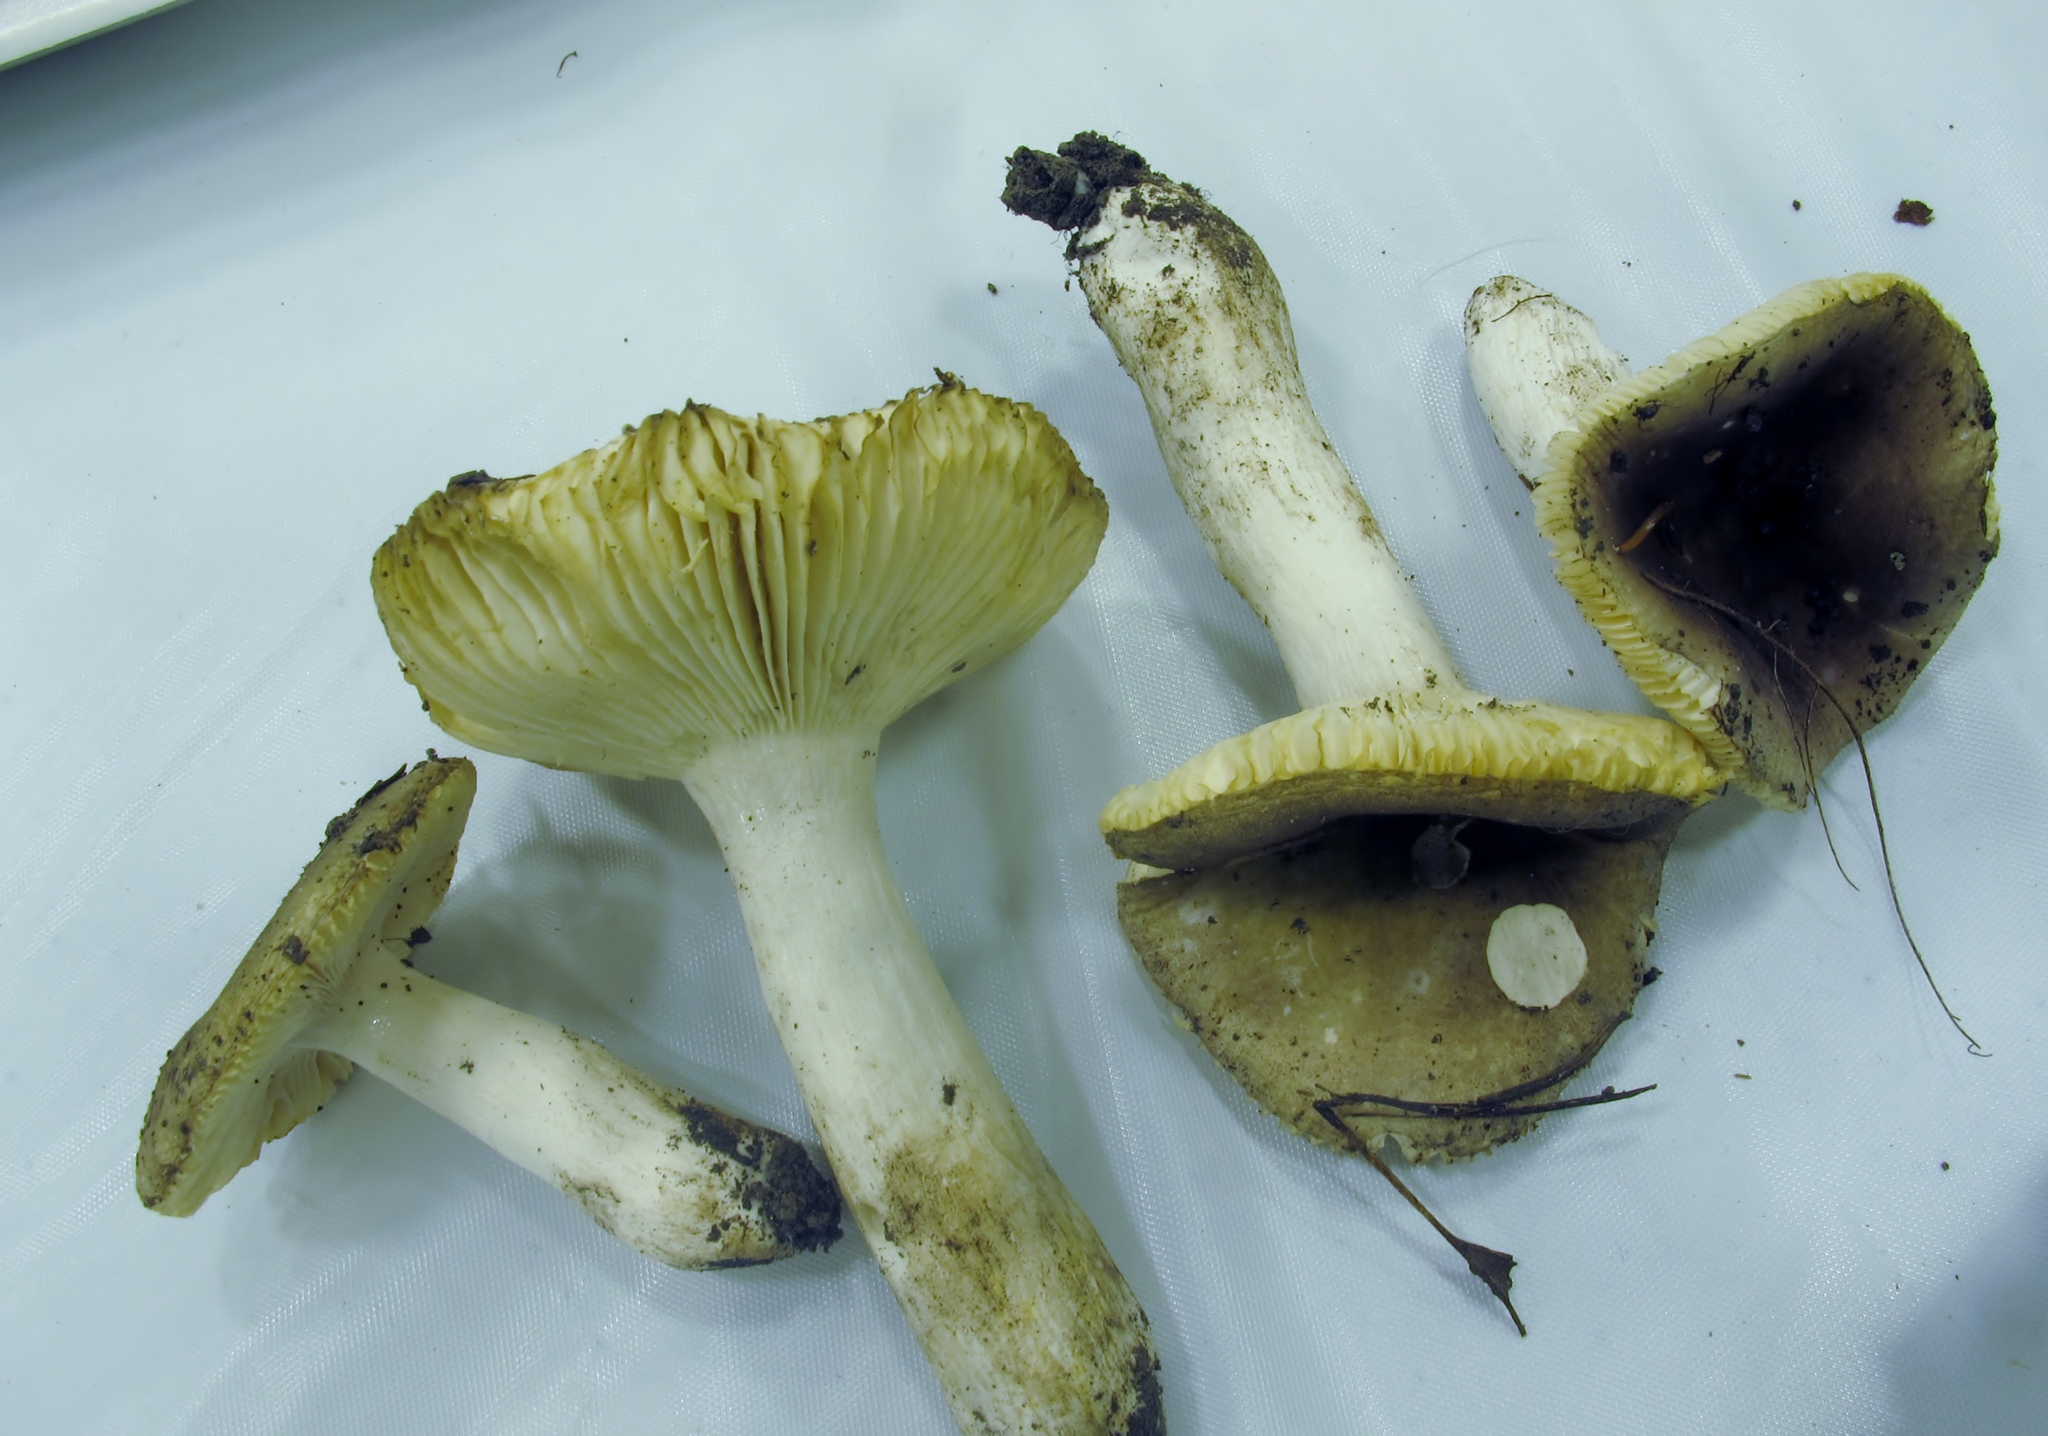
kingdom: Fungi
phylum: Basidiomycota
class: Agaricomycetes
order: Russulales
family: Russulaceae
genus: Russula
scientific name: Russula pelargonia
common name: Pelargonium brittlegill
